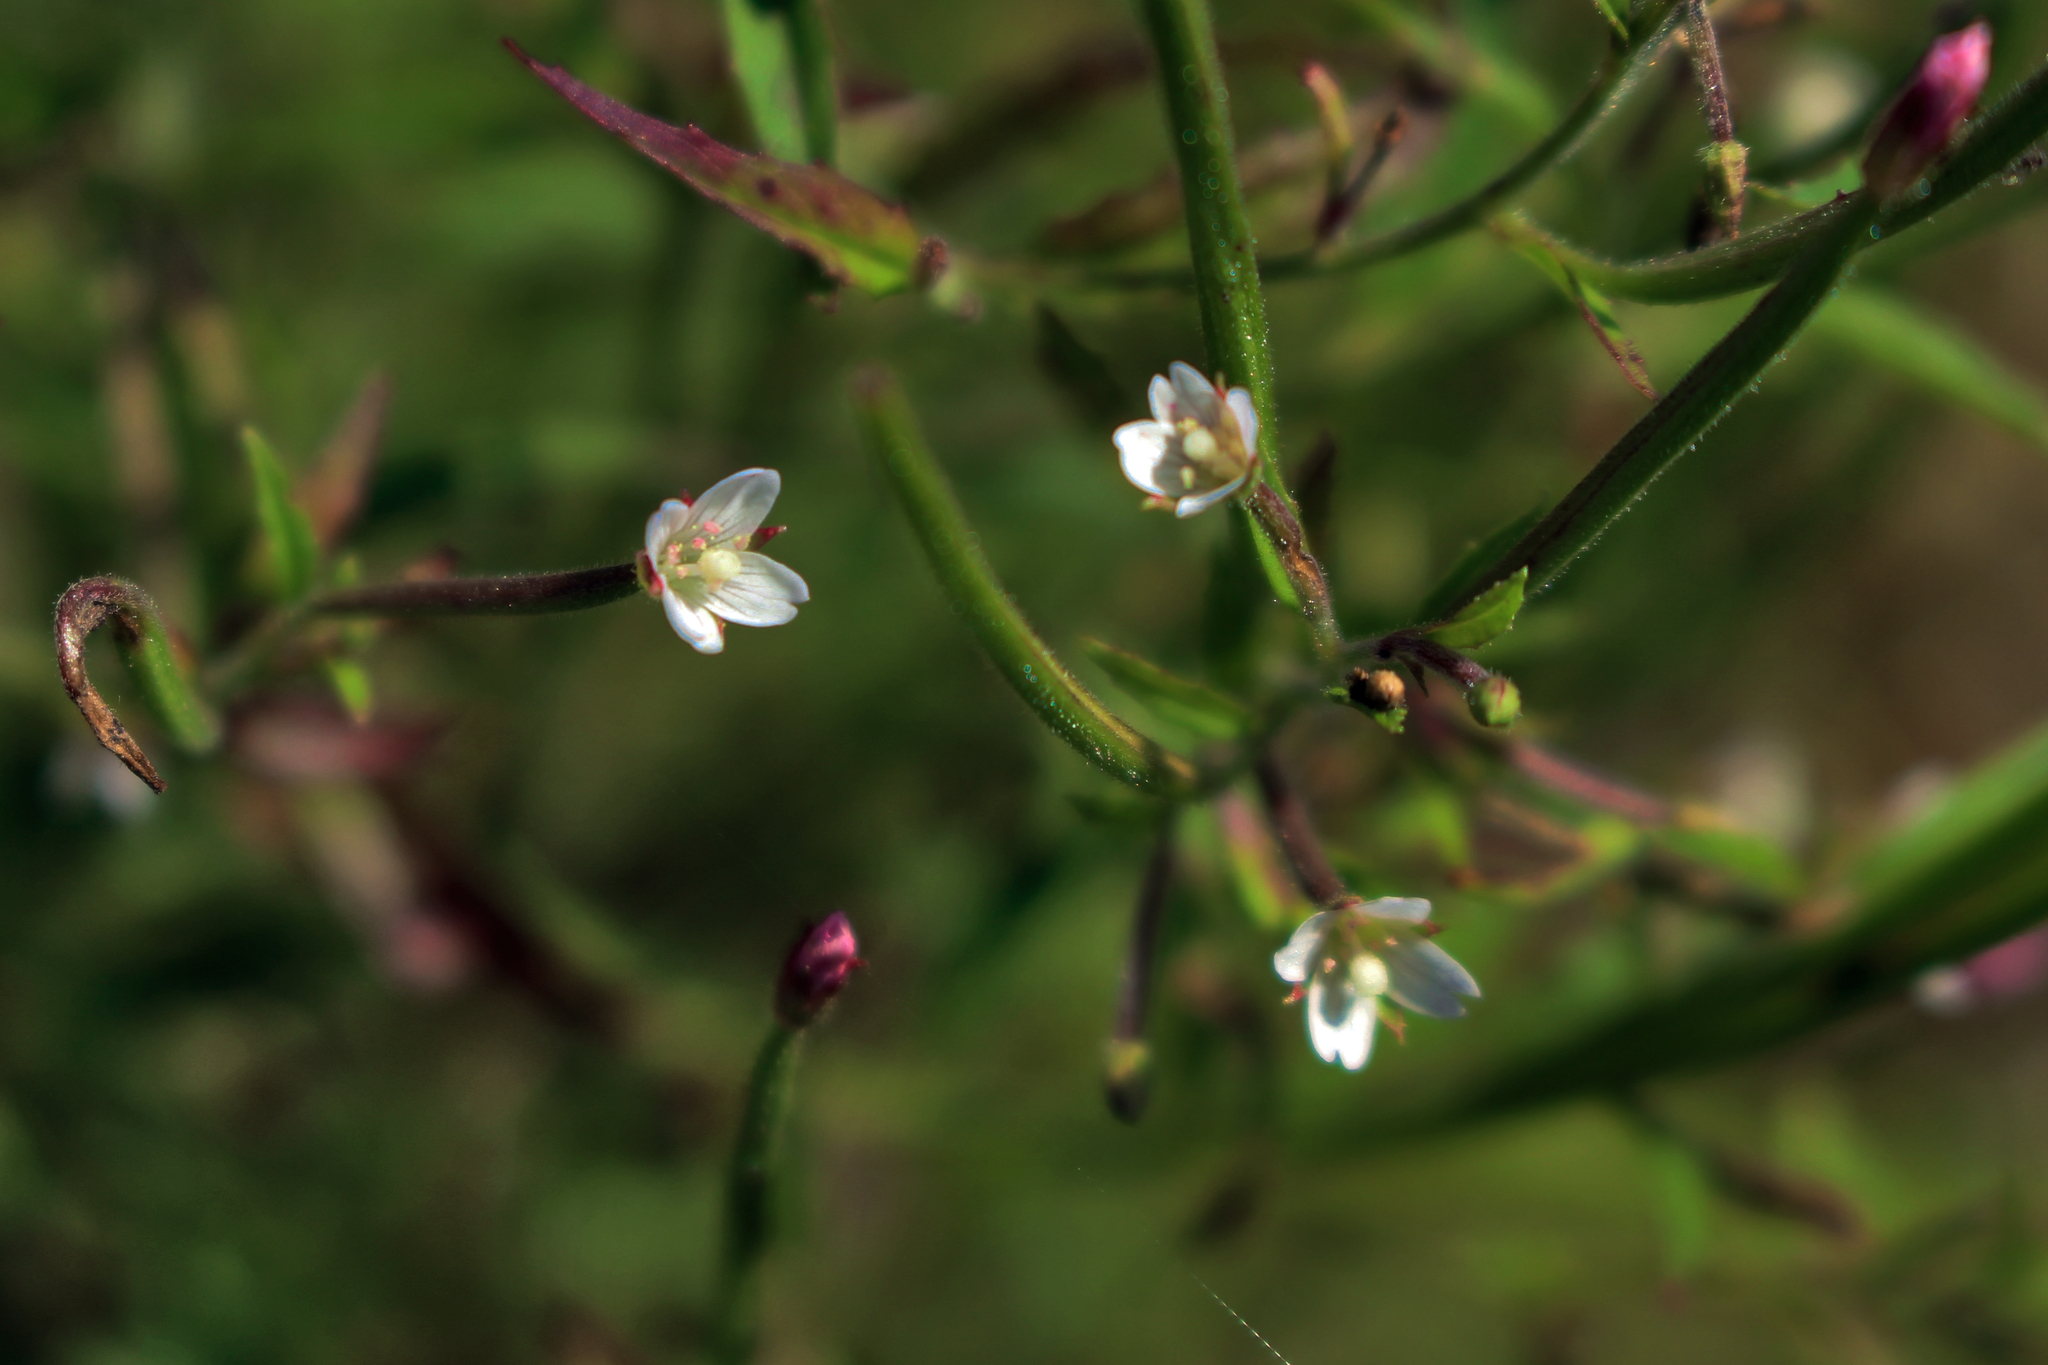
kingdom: Plantae
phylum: Tracheophyta
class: Magnoliopsida
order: Myrtales
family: Onagraceae
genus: Epilobium
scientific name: Epilobium coloratum
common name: Bronze willowherb
